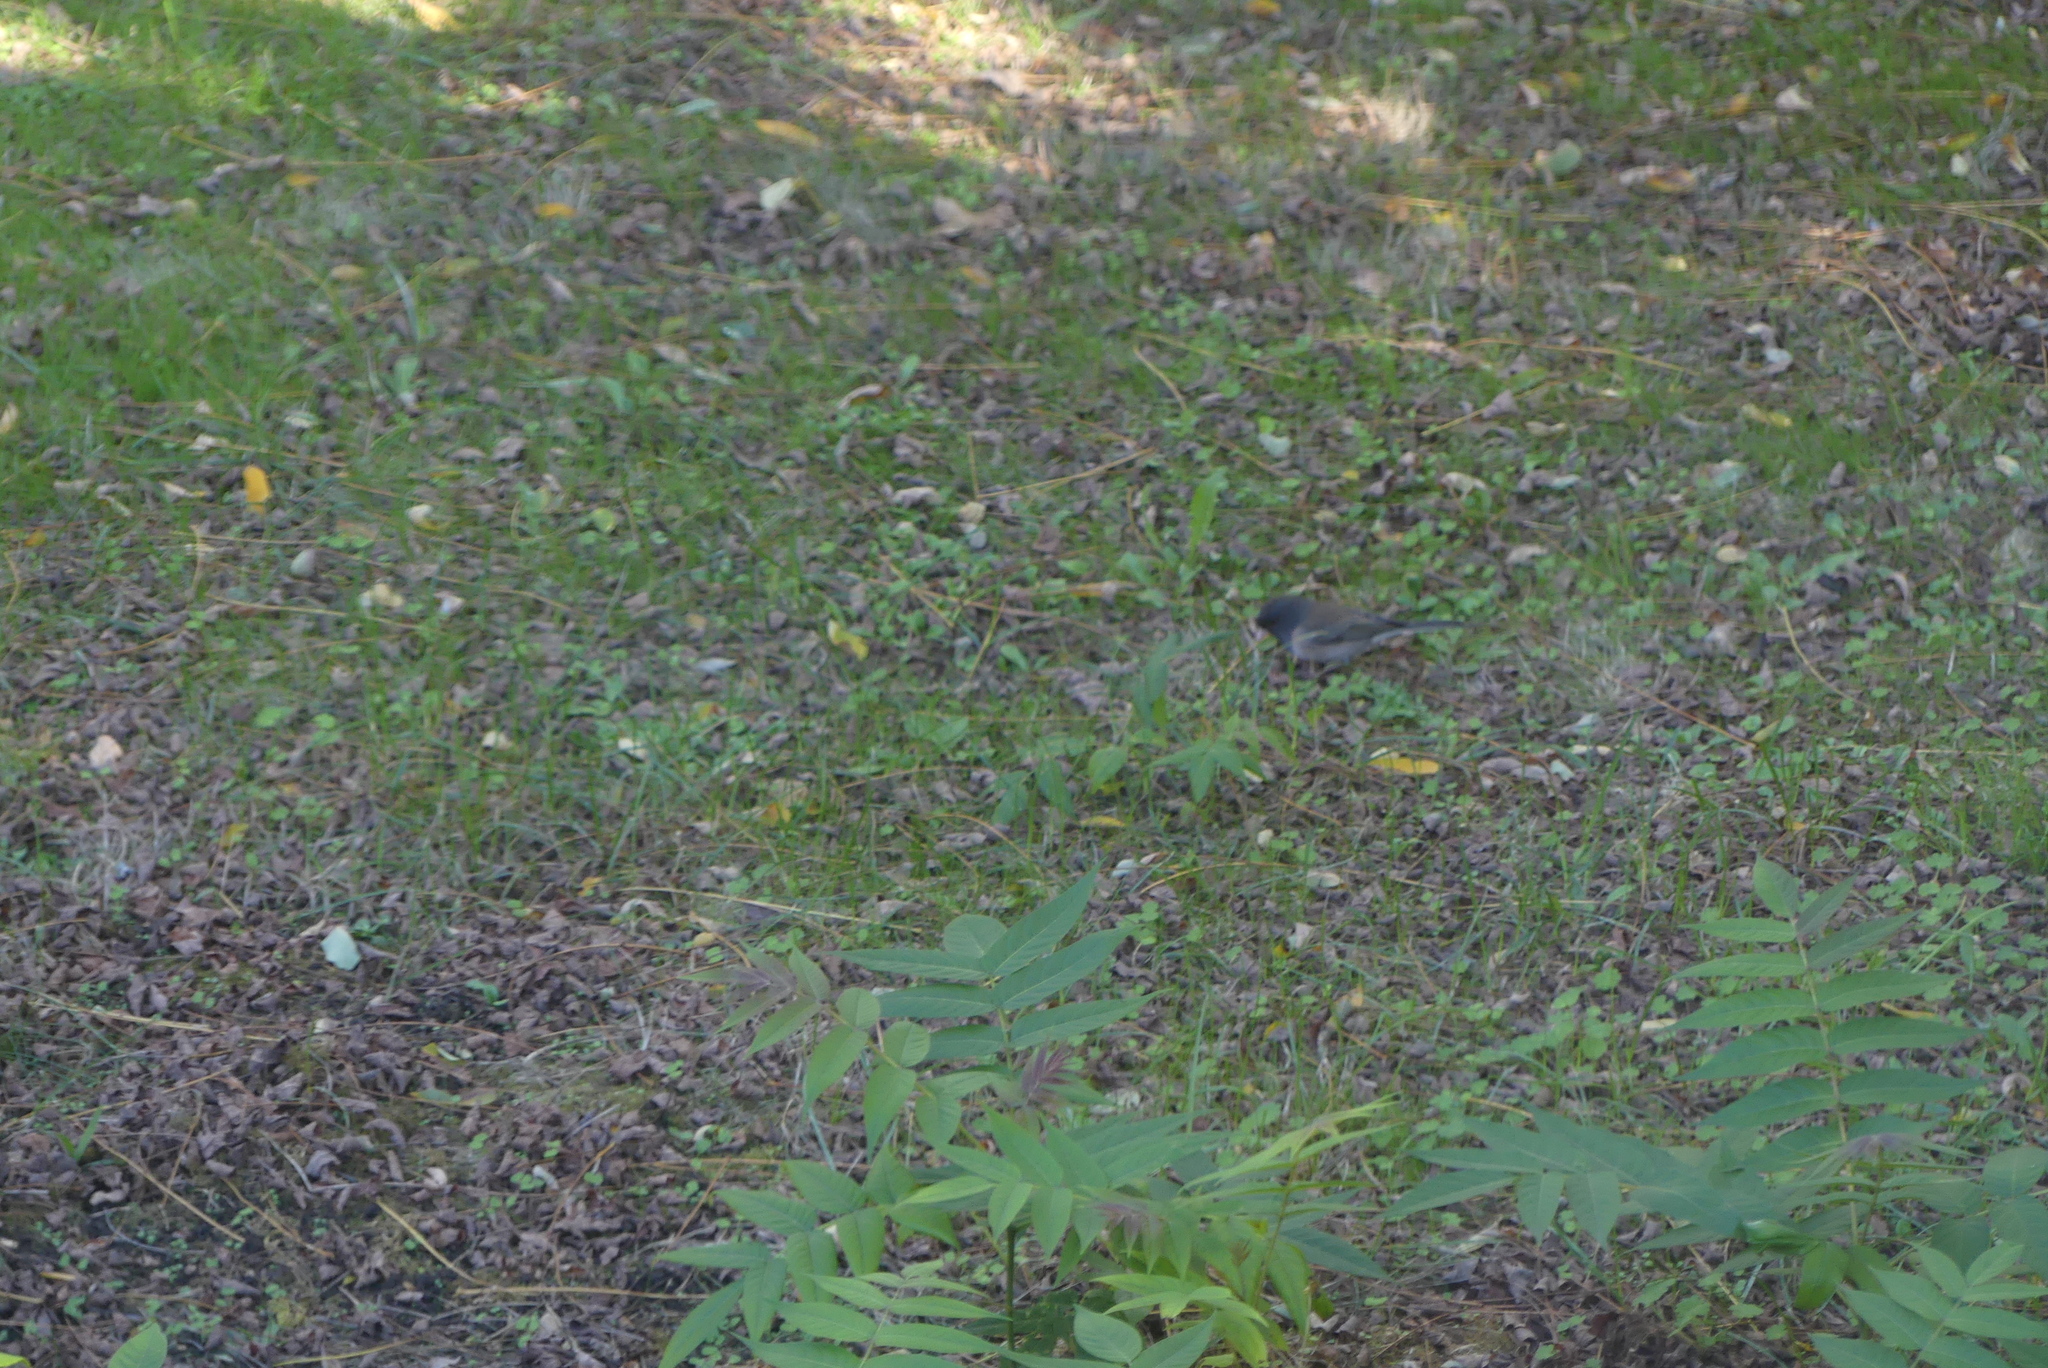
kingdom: Animalia
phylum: Chordata
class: Aves
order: Passeriformes
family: Passerellidae
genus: Junco
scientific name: Junco hyemalis
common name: Dark-eyed junco
